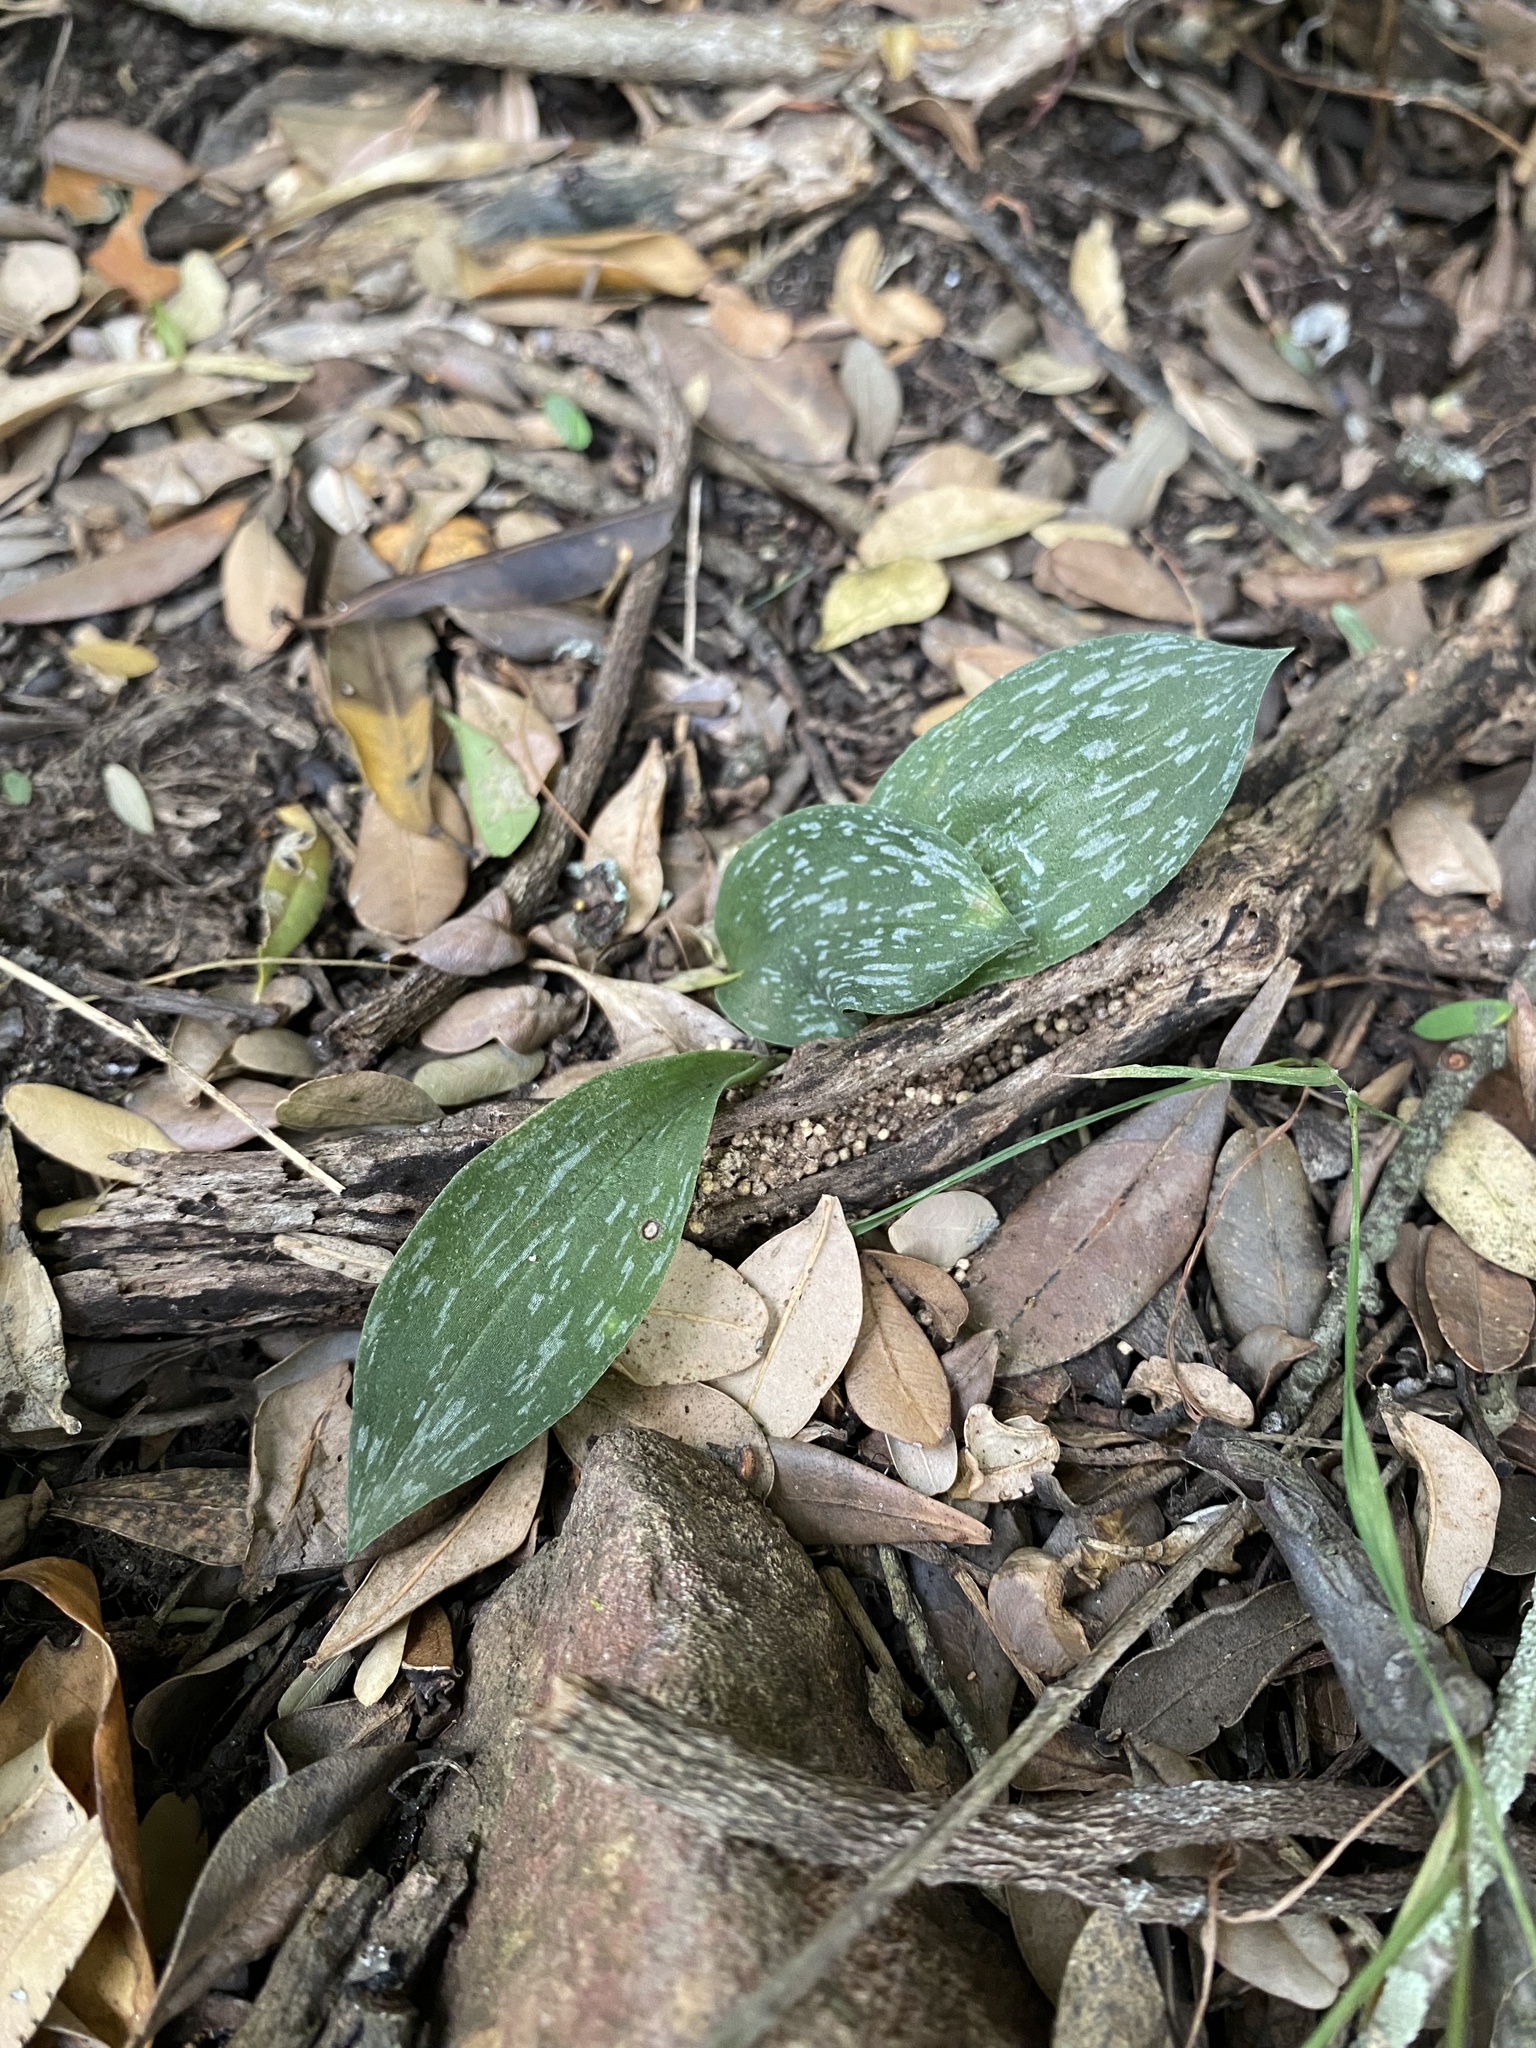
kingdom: Plantae
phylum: Tracheophyta
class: Liliopsida
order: Asparagales
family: Orchidaceae
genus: Habenaria
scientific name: Habenaria arenaria
